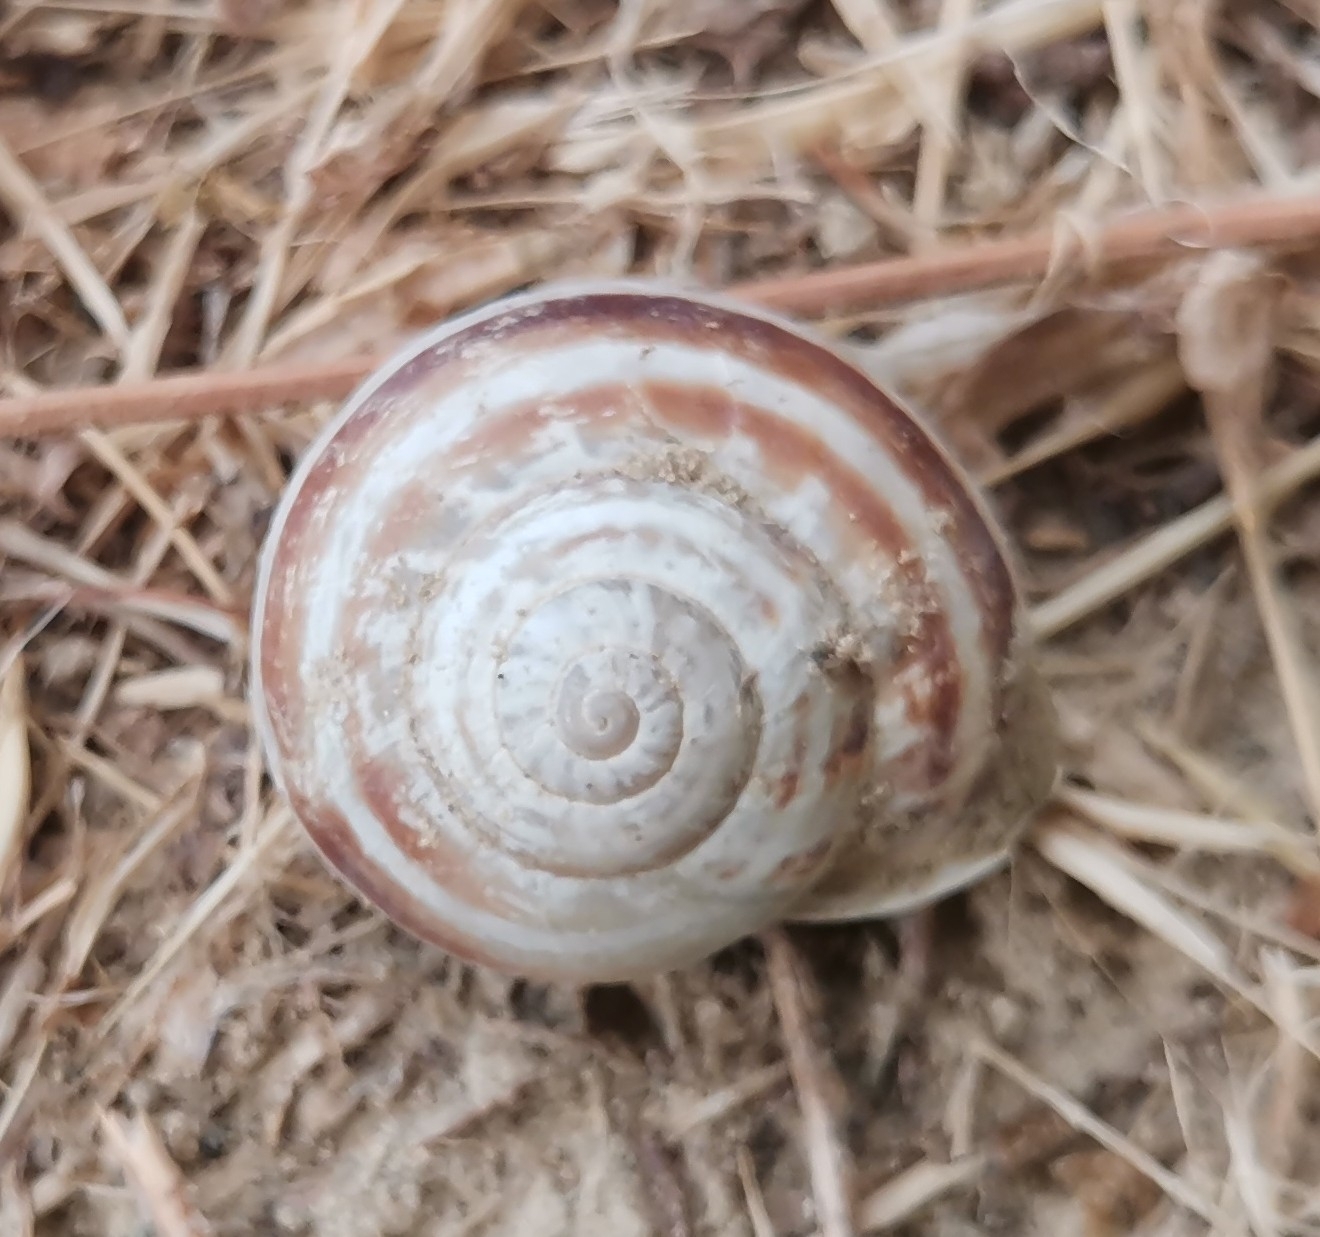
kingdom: Animalia
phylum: Mollusca
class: Gastropoda
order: Stylommatophora
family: Helicidae
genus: Eobania
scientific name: Eobania vermiculata
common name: Chocolateband snail
